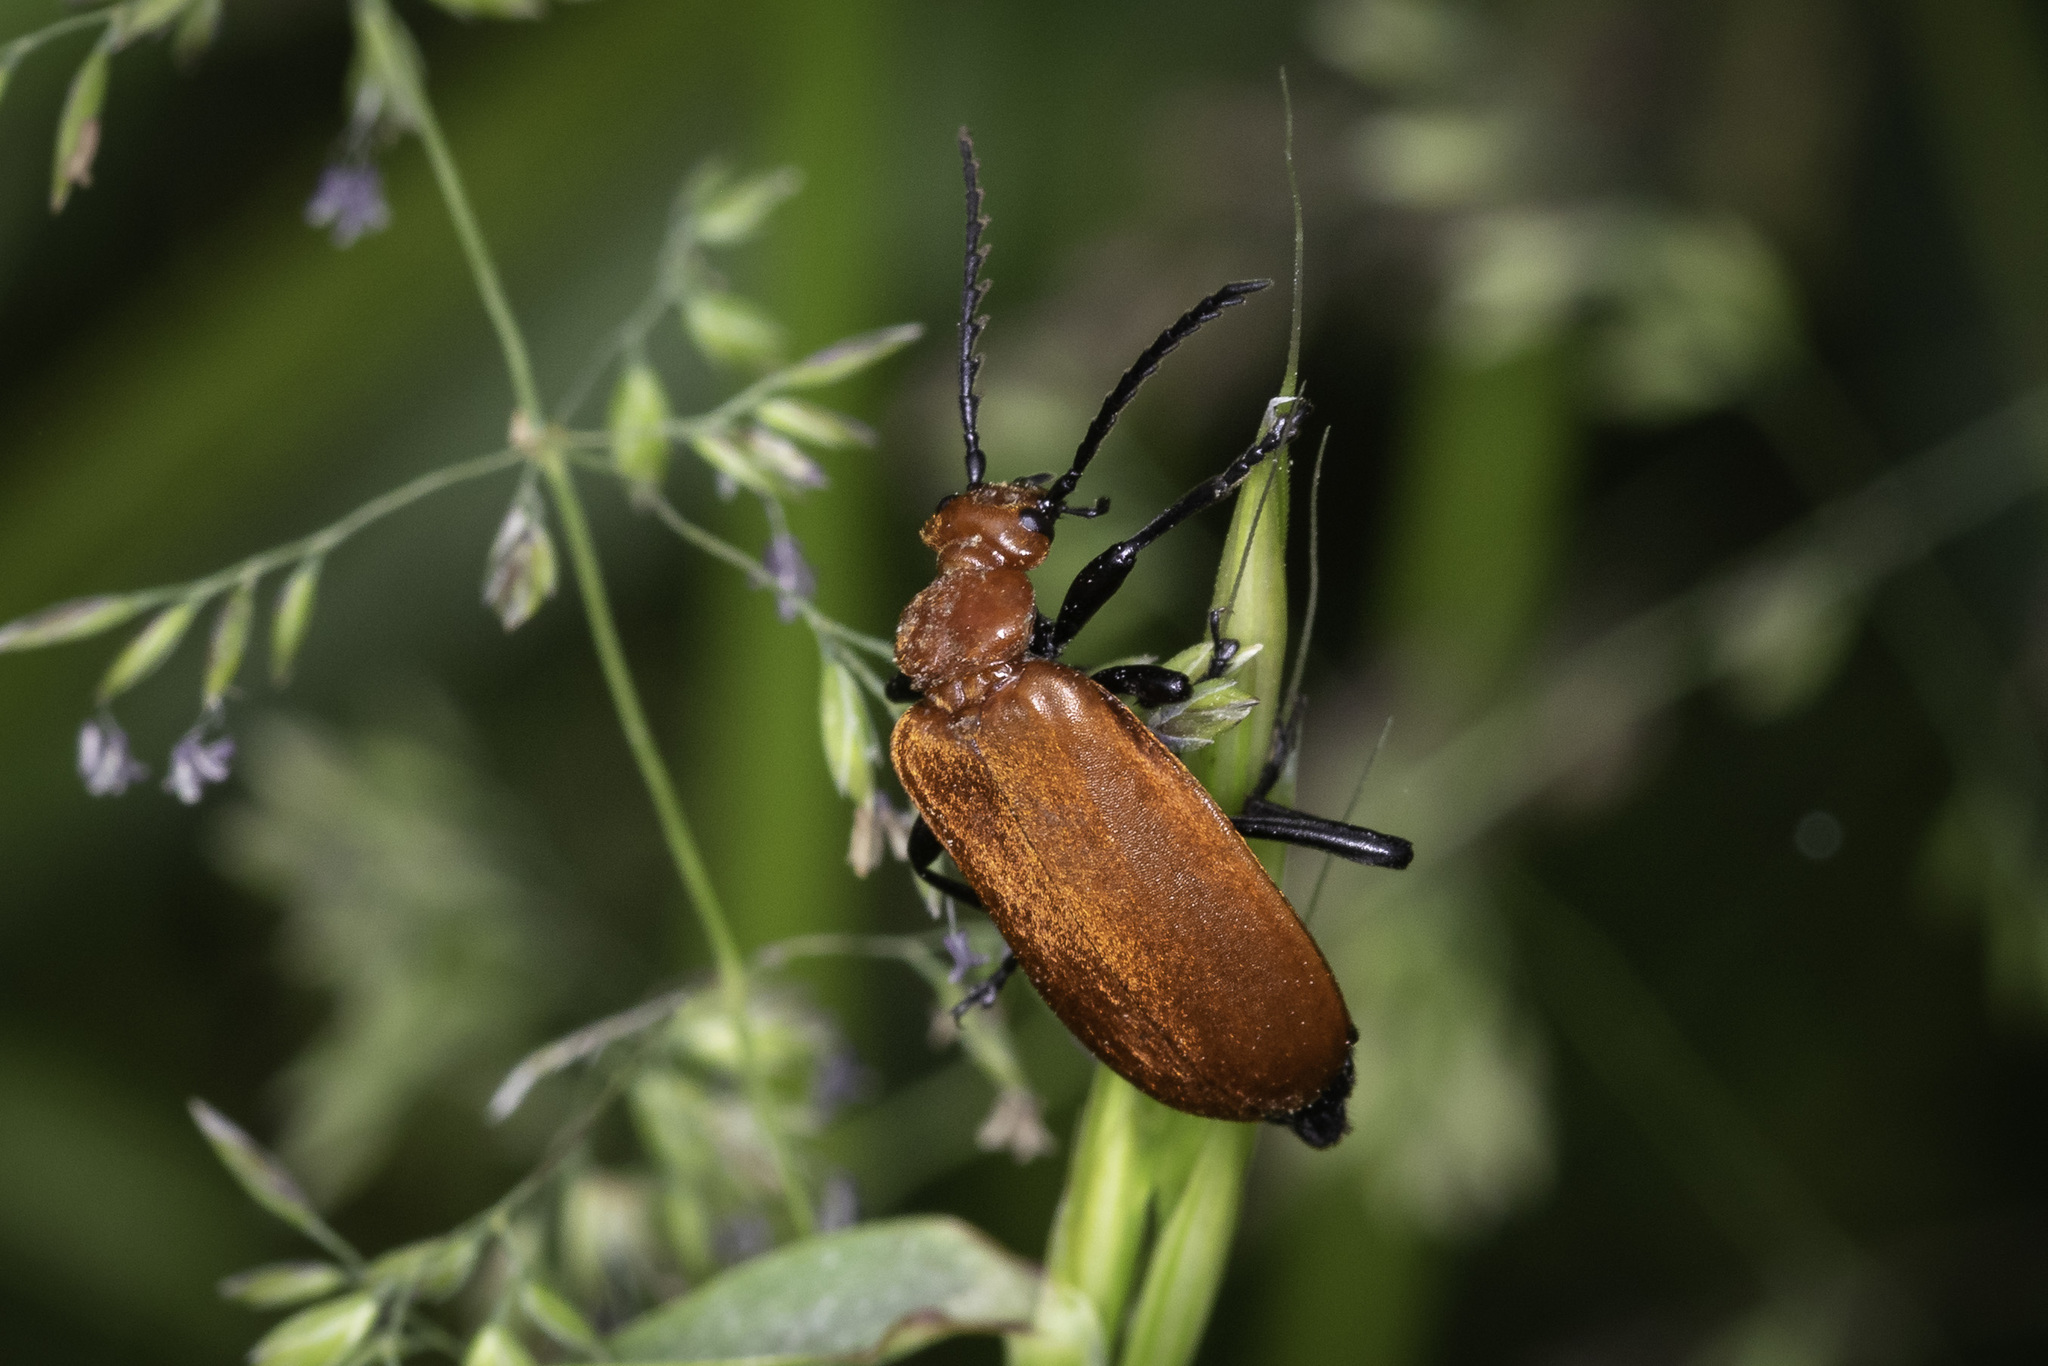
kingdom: Animalia
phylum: Arthropoda
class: Insecta
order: Coleoptera
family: Pyrochroidae
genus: Pyrochroa
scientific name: Pyrochroa serraticornis
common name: Red-headed cardinal beetle
